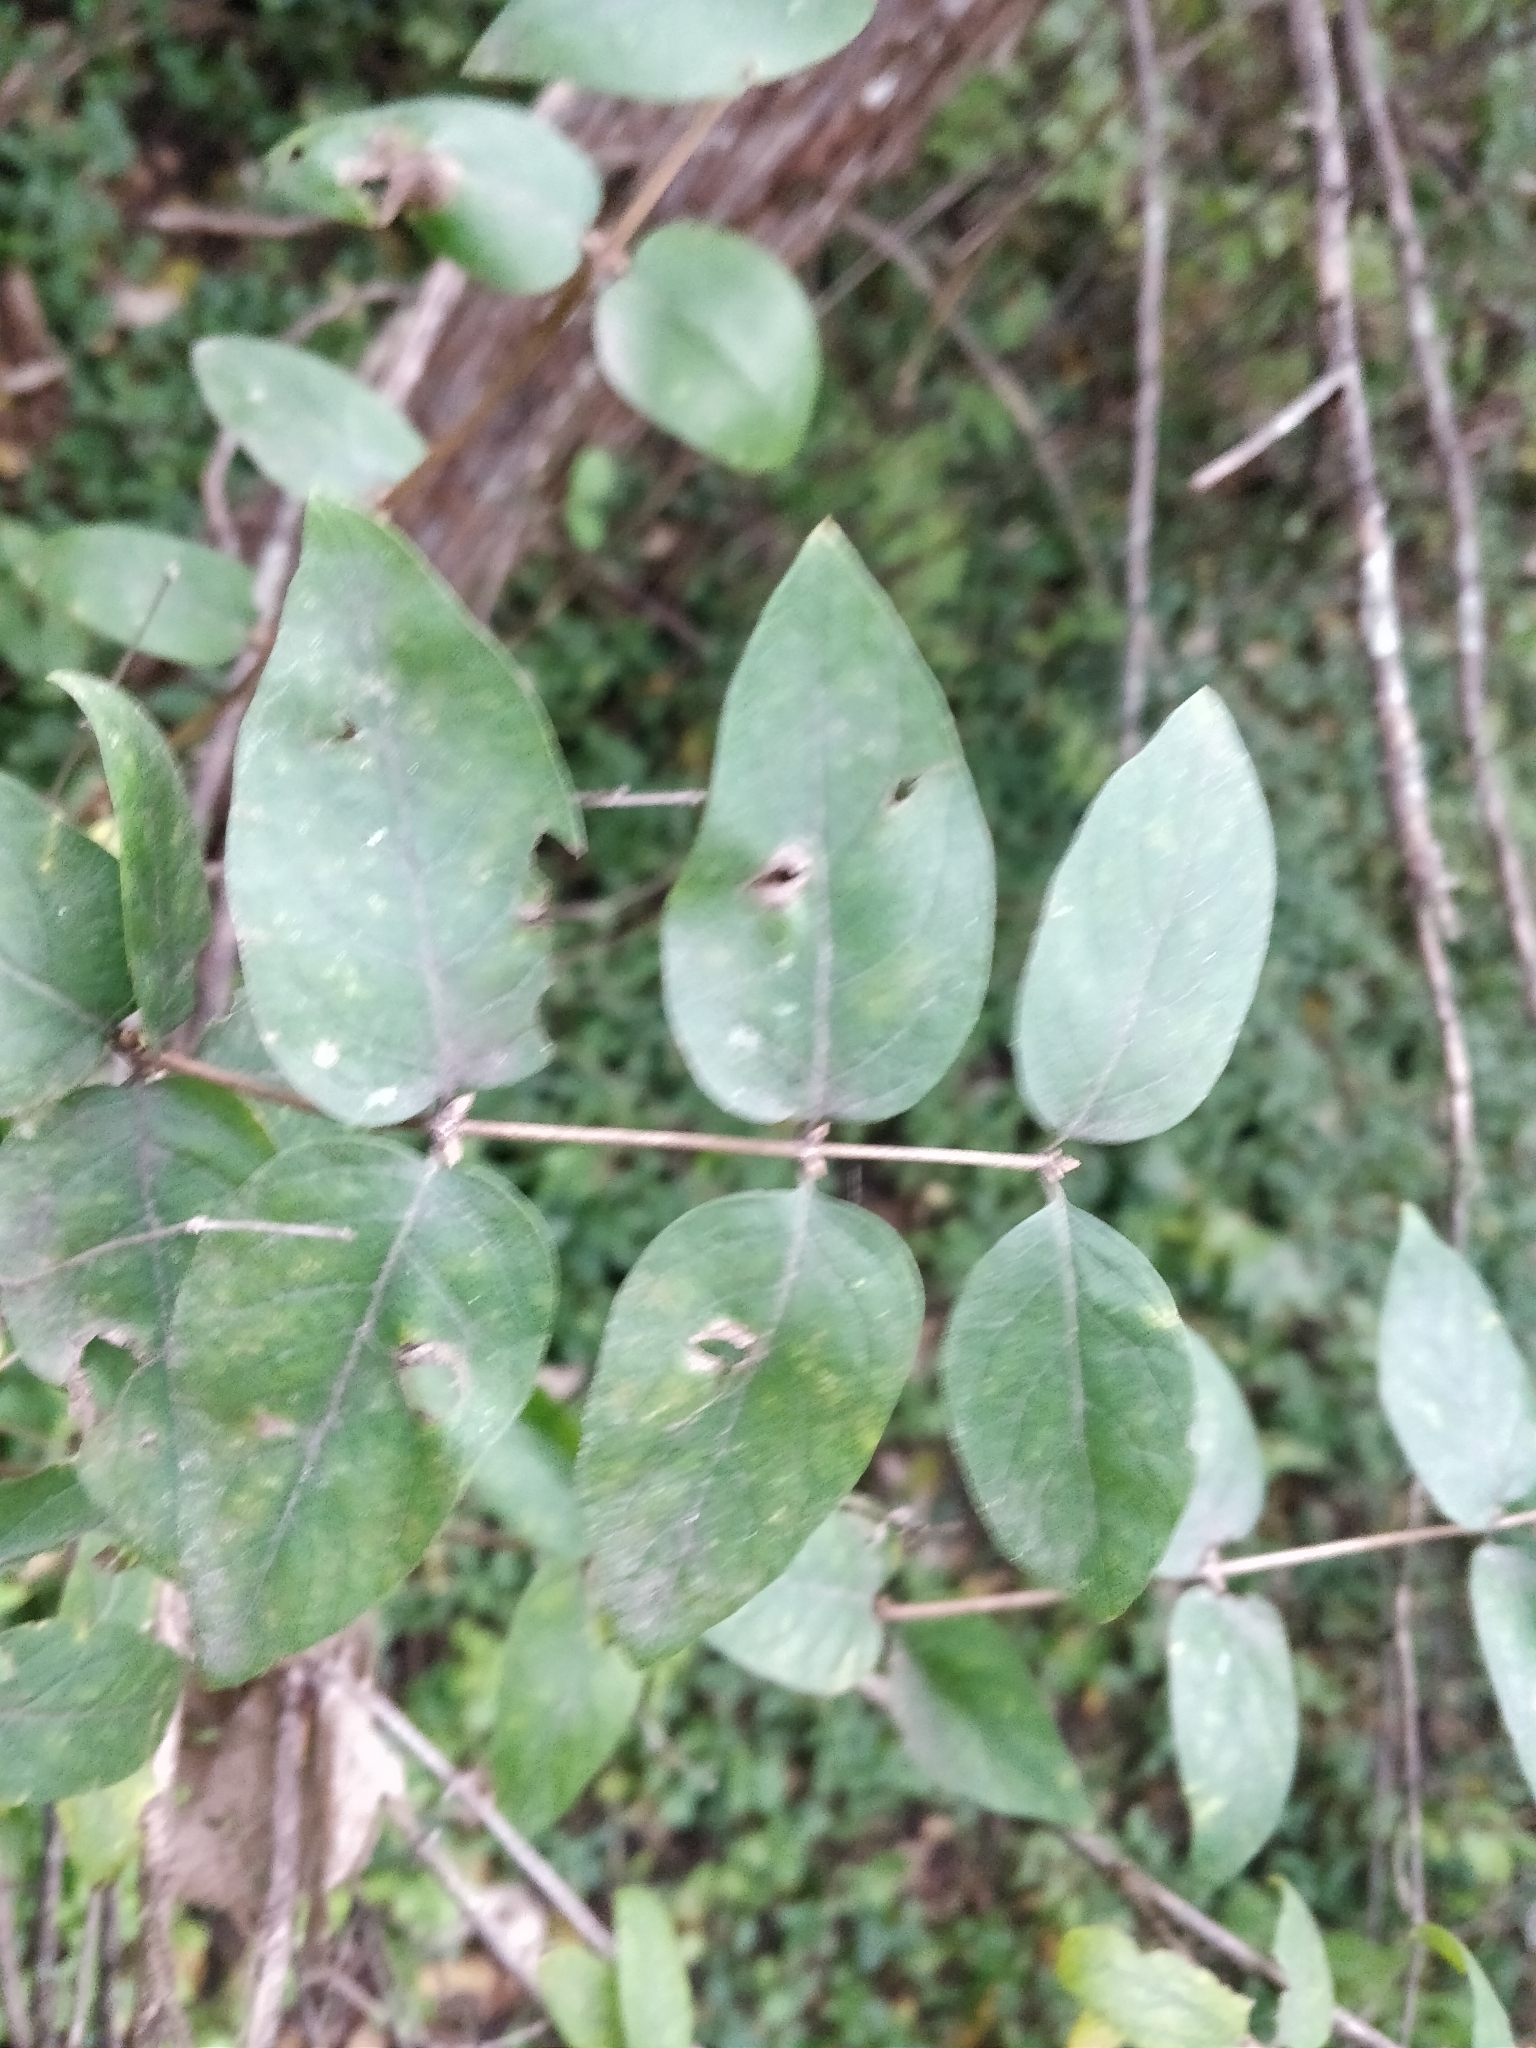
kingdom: Plantae
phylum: Tracheophyta
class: Magnoliopsida
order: Dipsacales
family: Caprifoliaceae
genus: Lonicera
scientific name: Lonicera tatarica
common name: Tatarian honeysuckle
